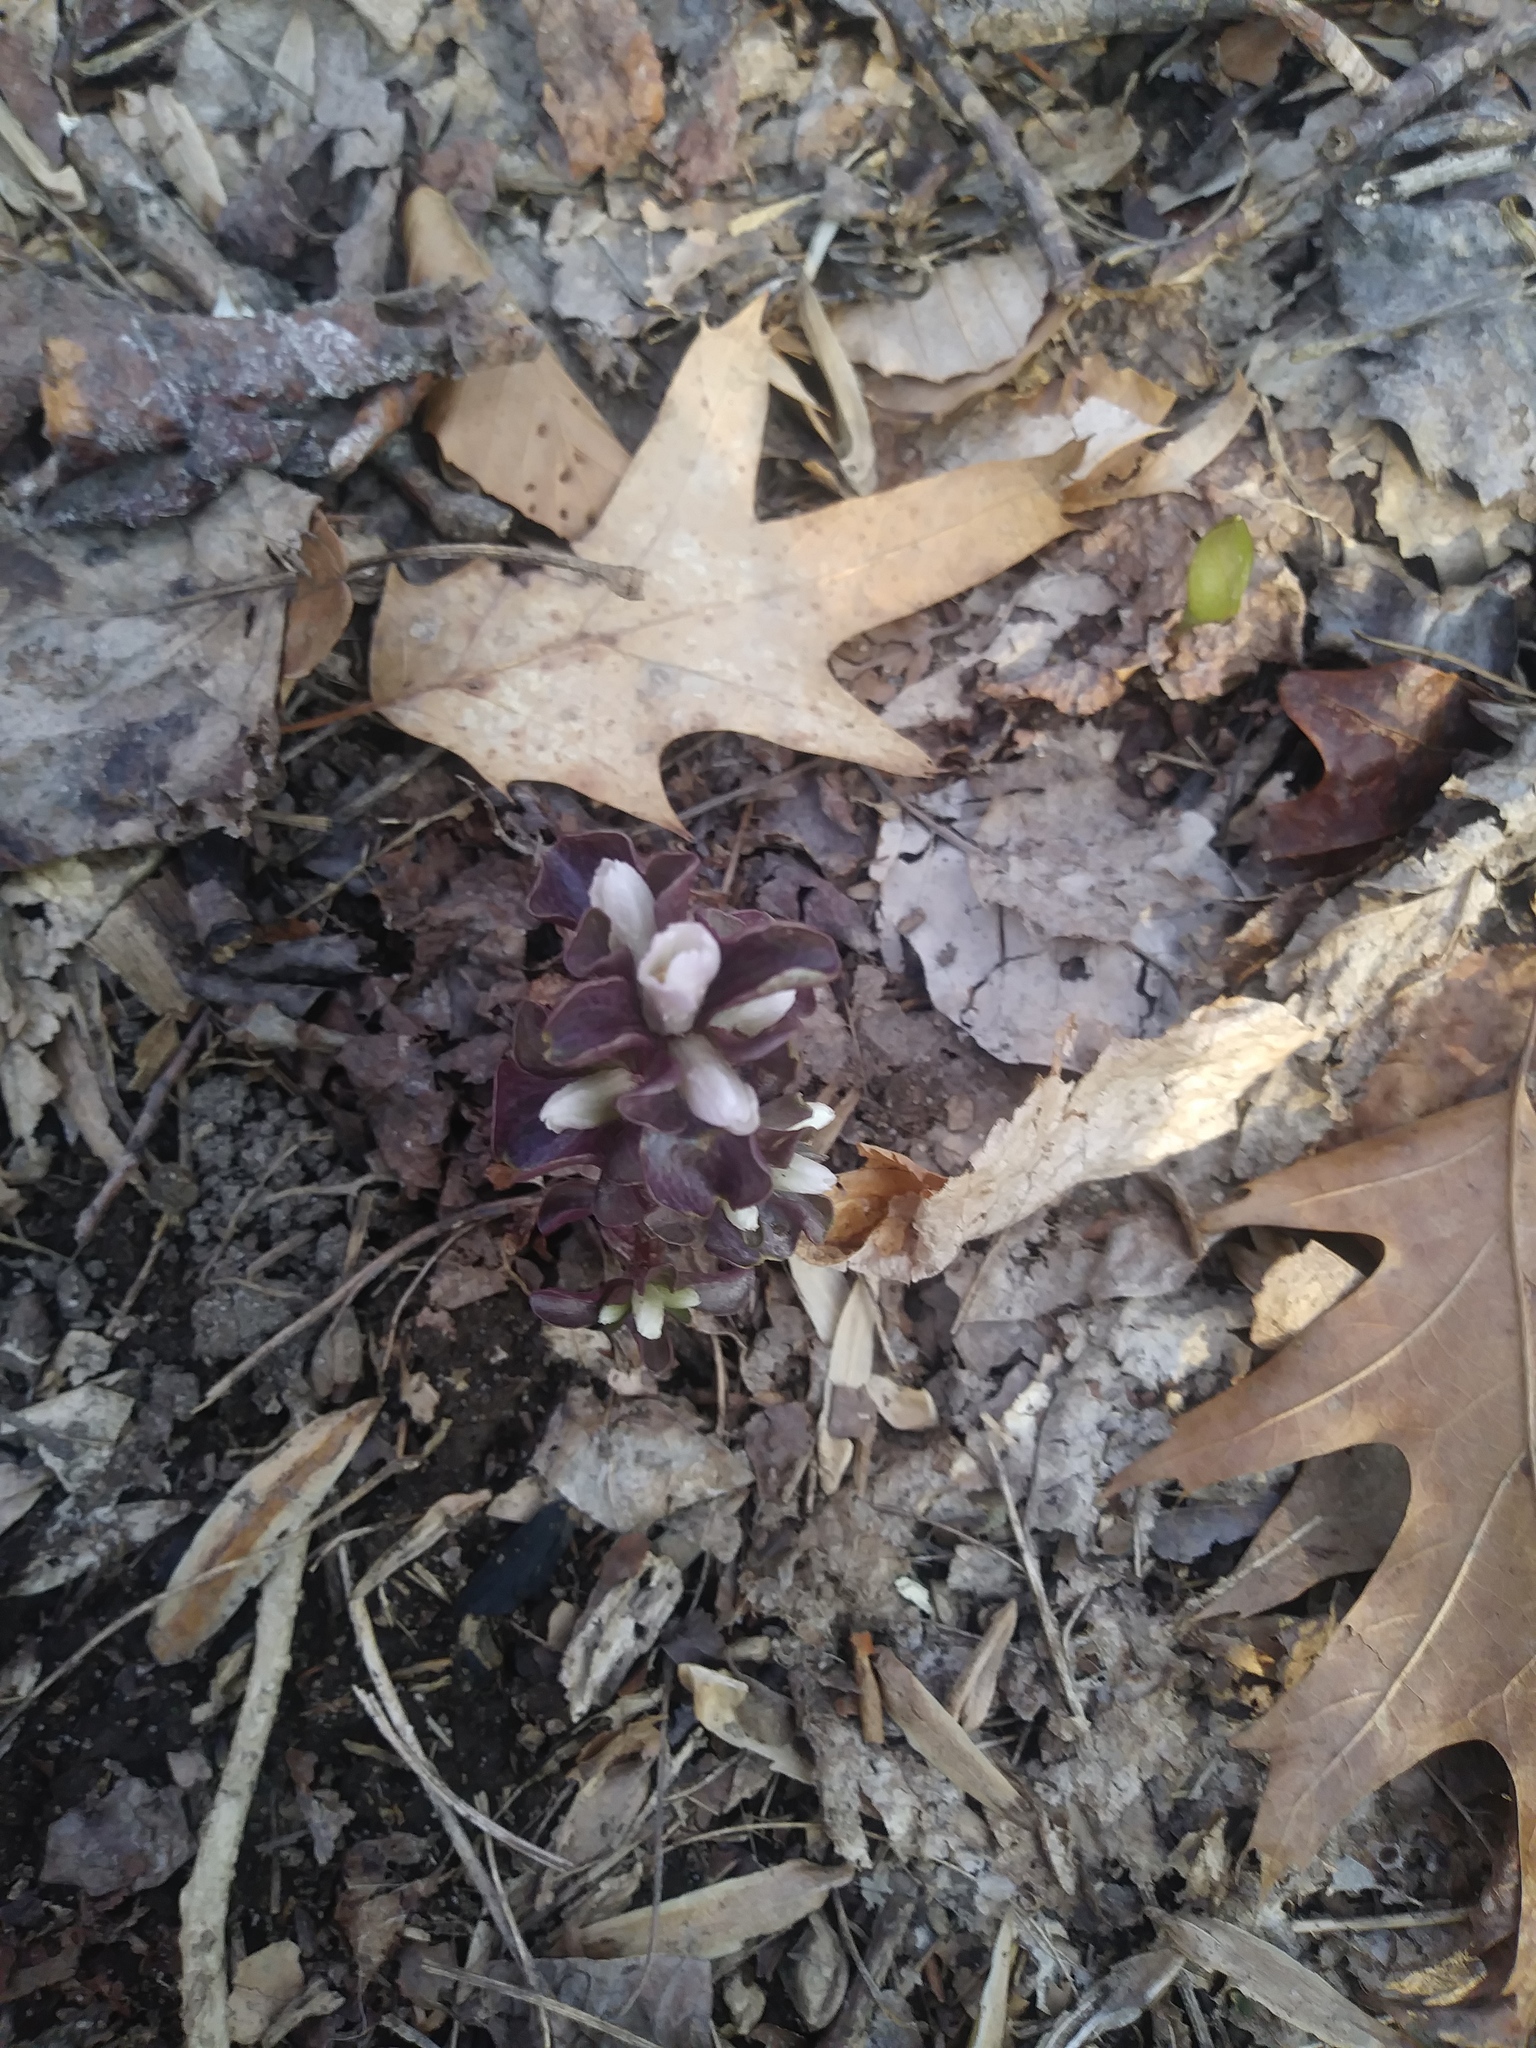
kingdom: Plantae
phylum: Tracheophyta
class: Magnoliopsida
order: Gentianales
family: Gentianaceae
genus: Obolaria
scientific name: Obolaria virginica
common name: Pennywort
